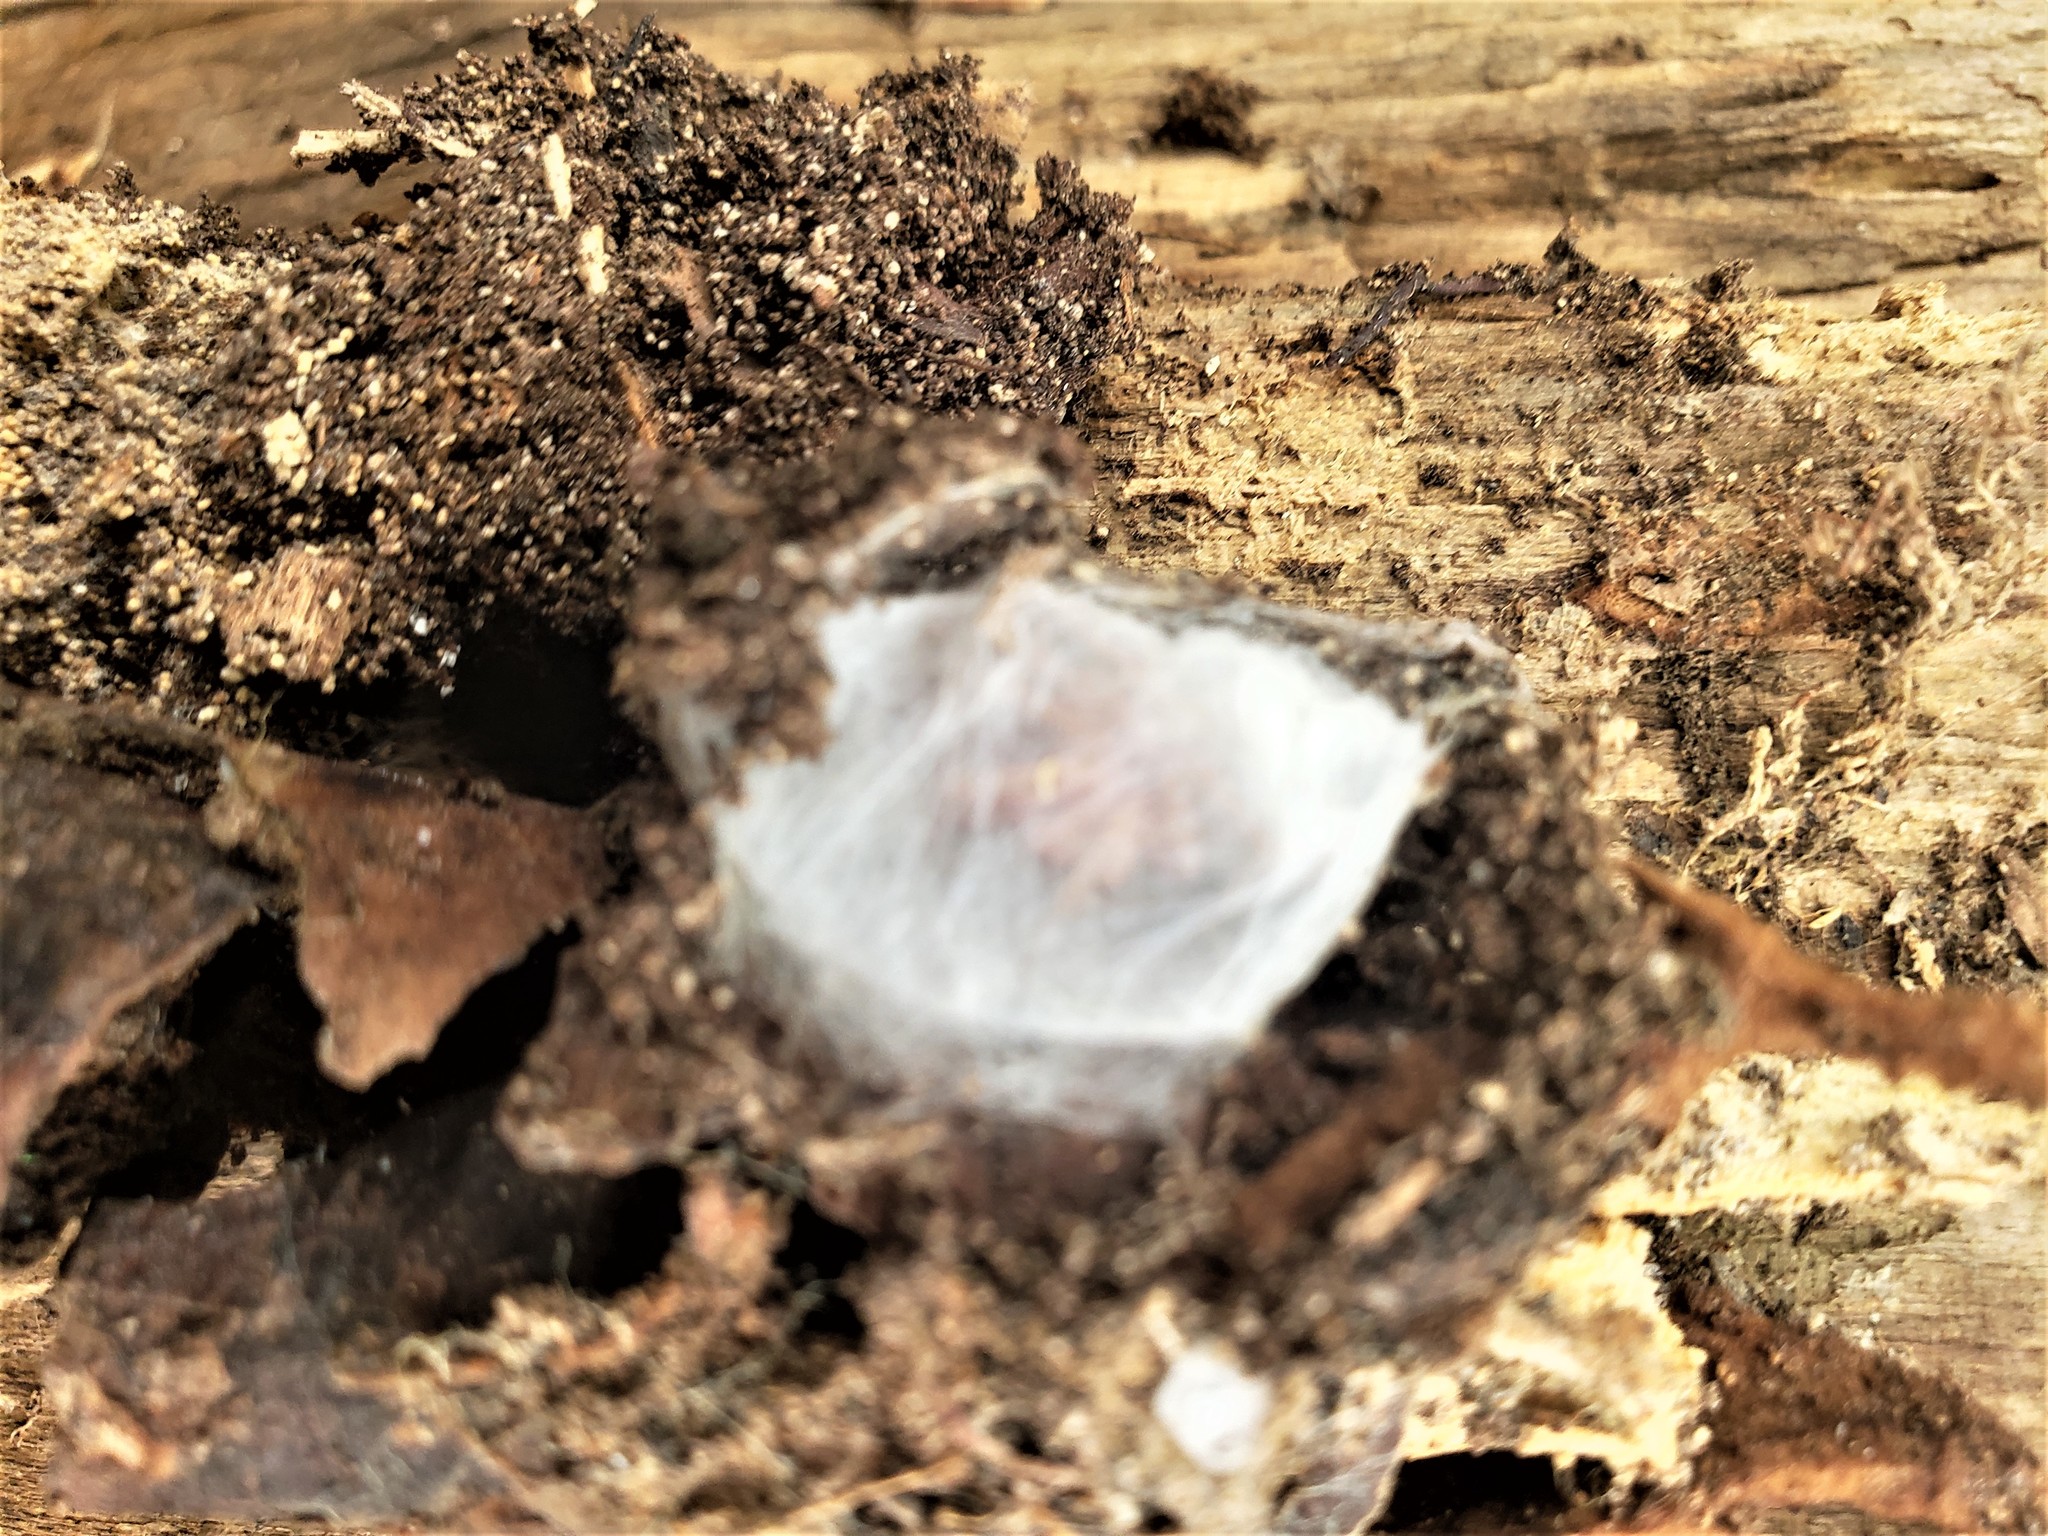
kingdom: Animalia
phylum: Arthropoda
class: Arachnida
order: Araneae
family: Dysderidae
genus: Dysdera
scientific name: Dysdera crocata
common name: Woodlouse spider
